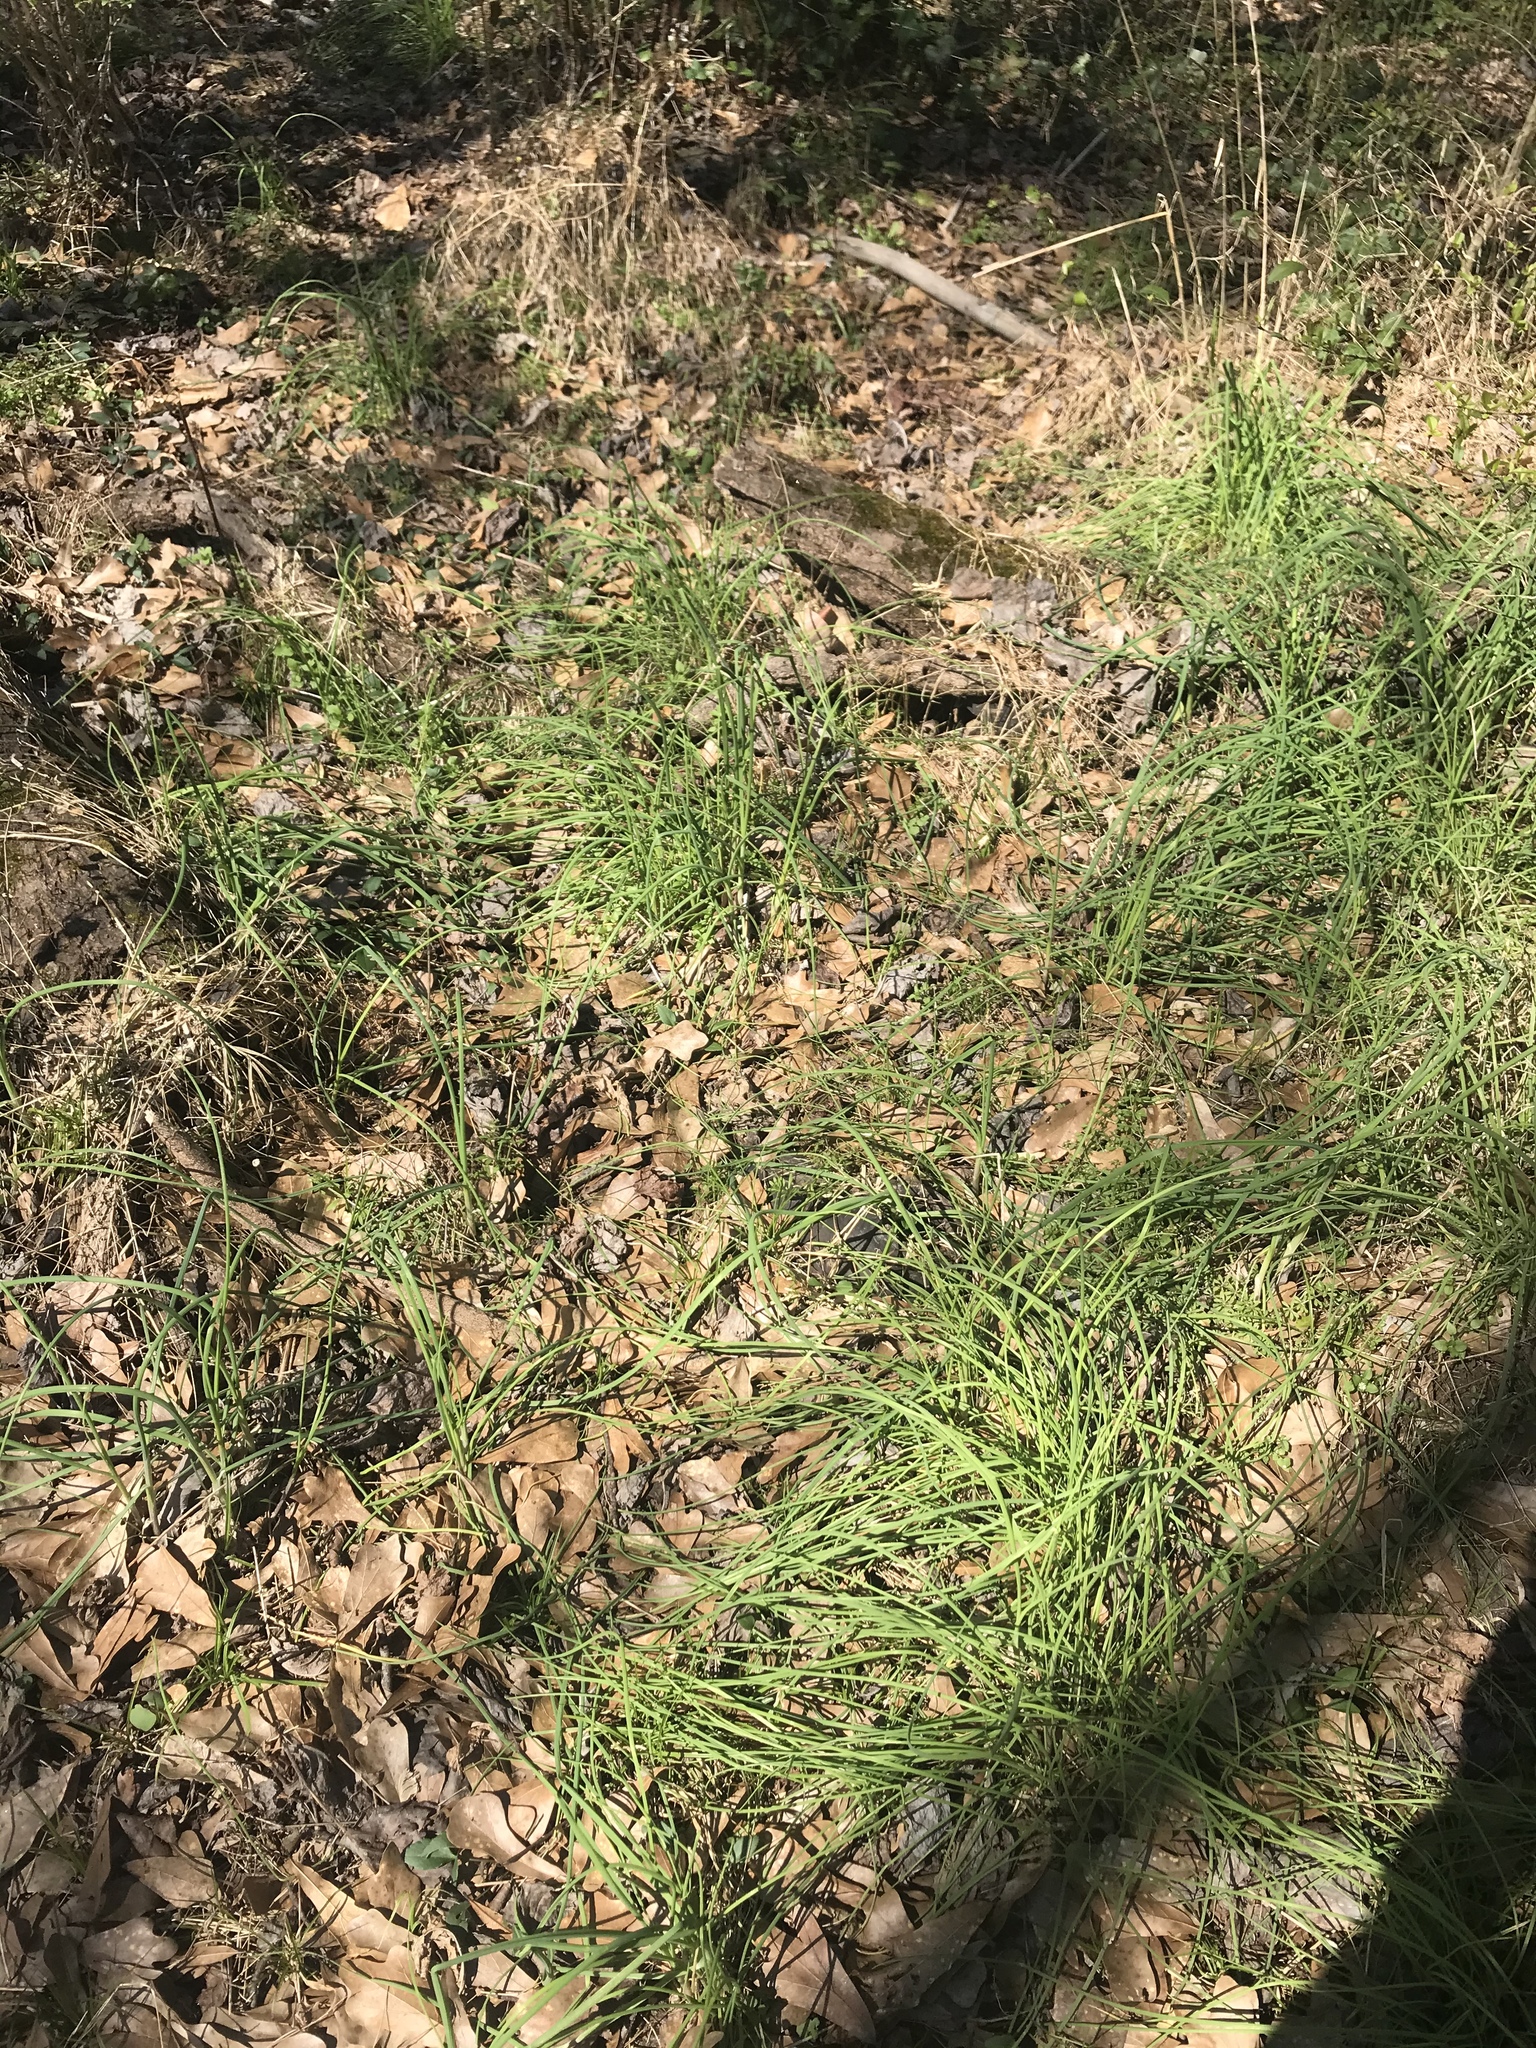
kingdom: Plantae
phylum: Tracheophyta
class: Liliopsida
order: Asparagales
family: Amaryllidaceae
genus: Allium
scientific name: Allium vineale
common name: Crow garlic
